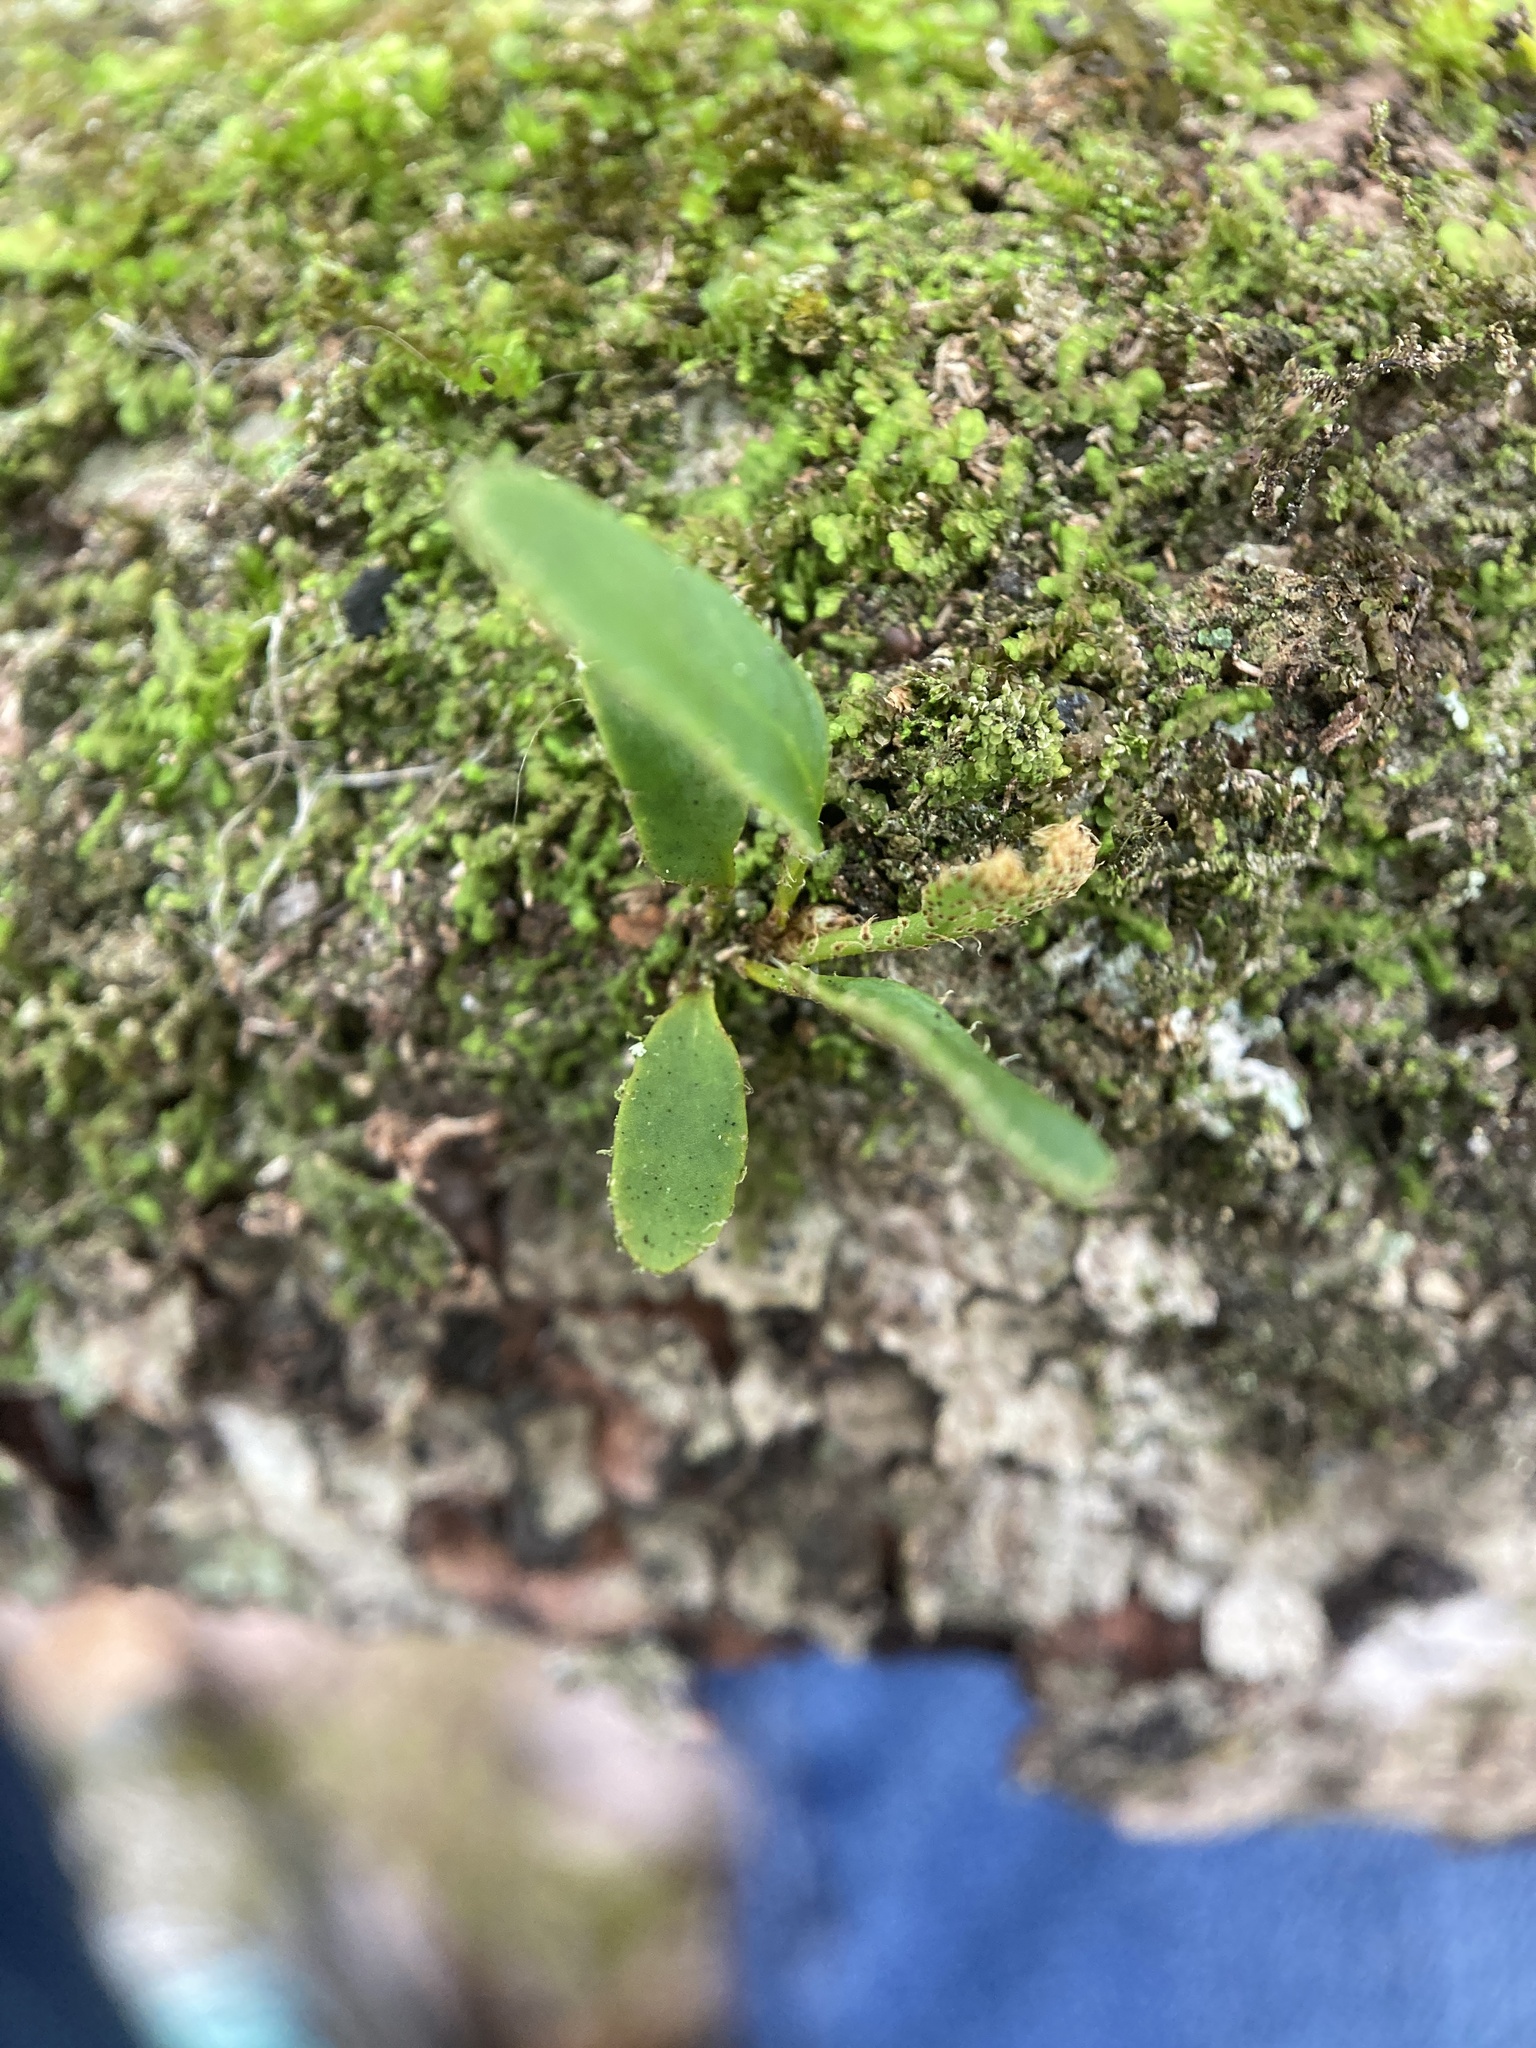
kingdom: Plantae
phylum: Tracheophyta
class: Polypodiopsida
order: Polypodiales
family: Polypodiaceae
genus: Pleopeltis
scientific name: Pleopeltis michauxiana
